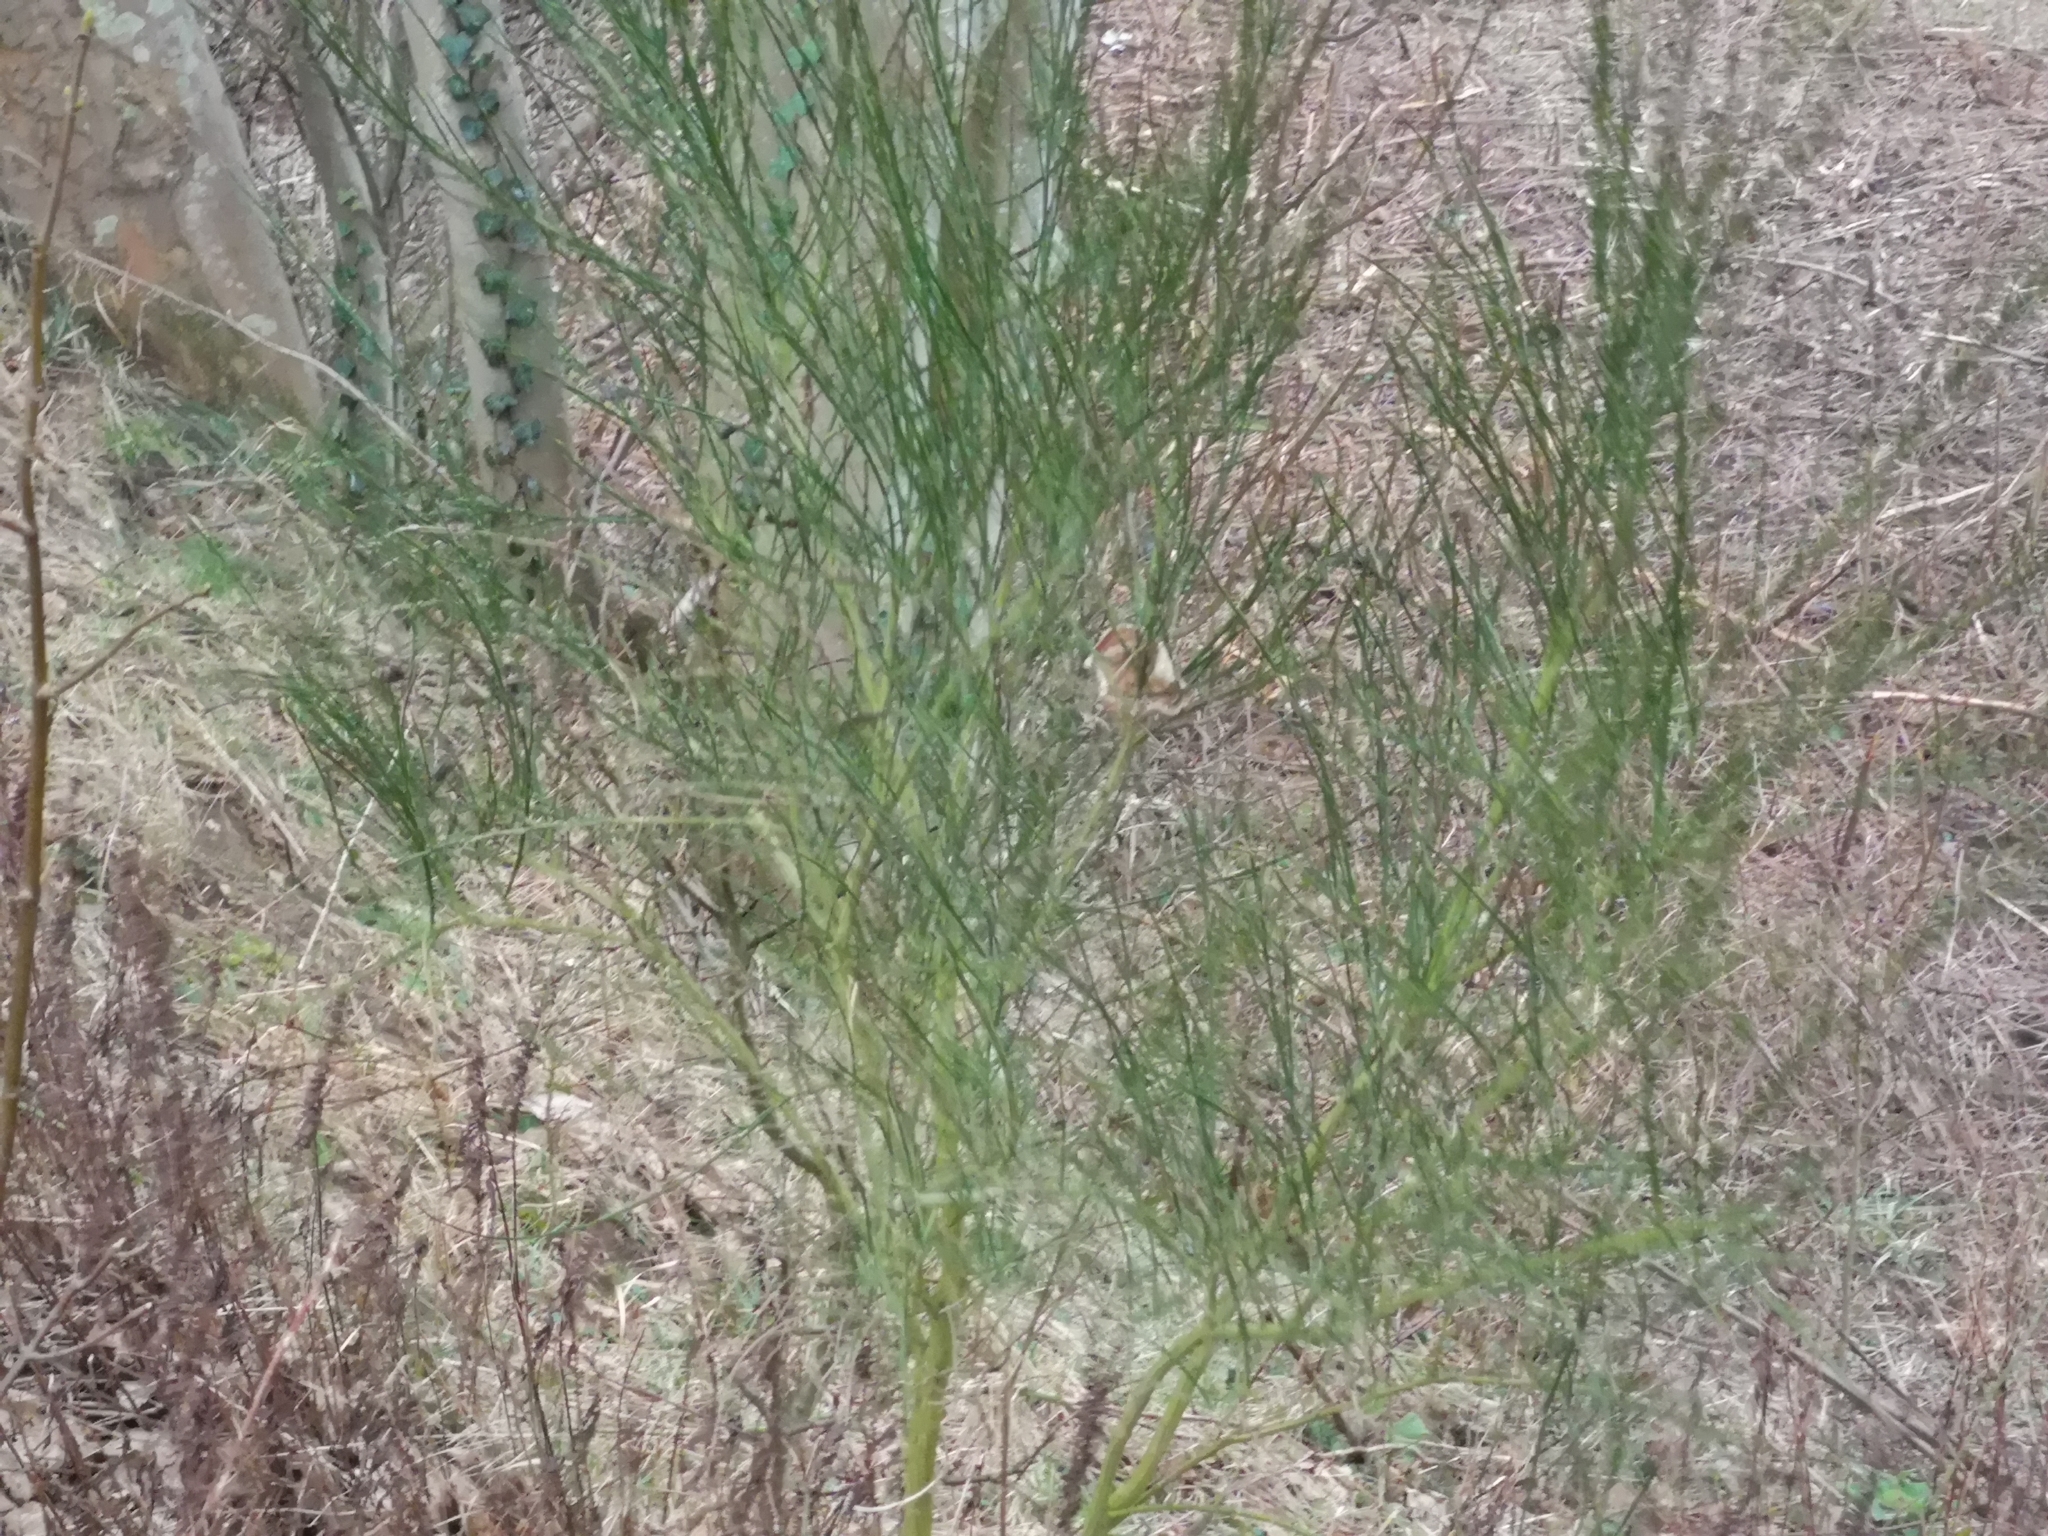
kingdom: Plantae
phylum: Tracheophyta
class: Magnoliopsida
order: Fabales
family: Fabaceae
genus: Cytisus
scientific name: Cytisus scoparius
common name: Scotch broom
